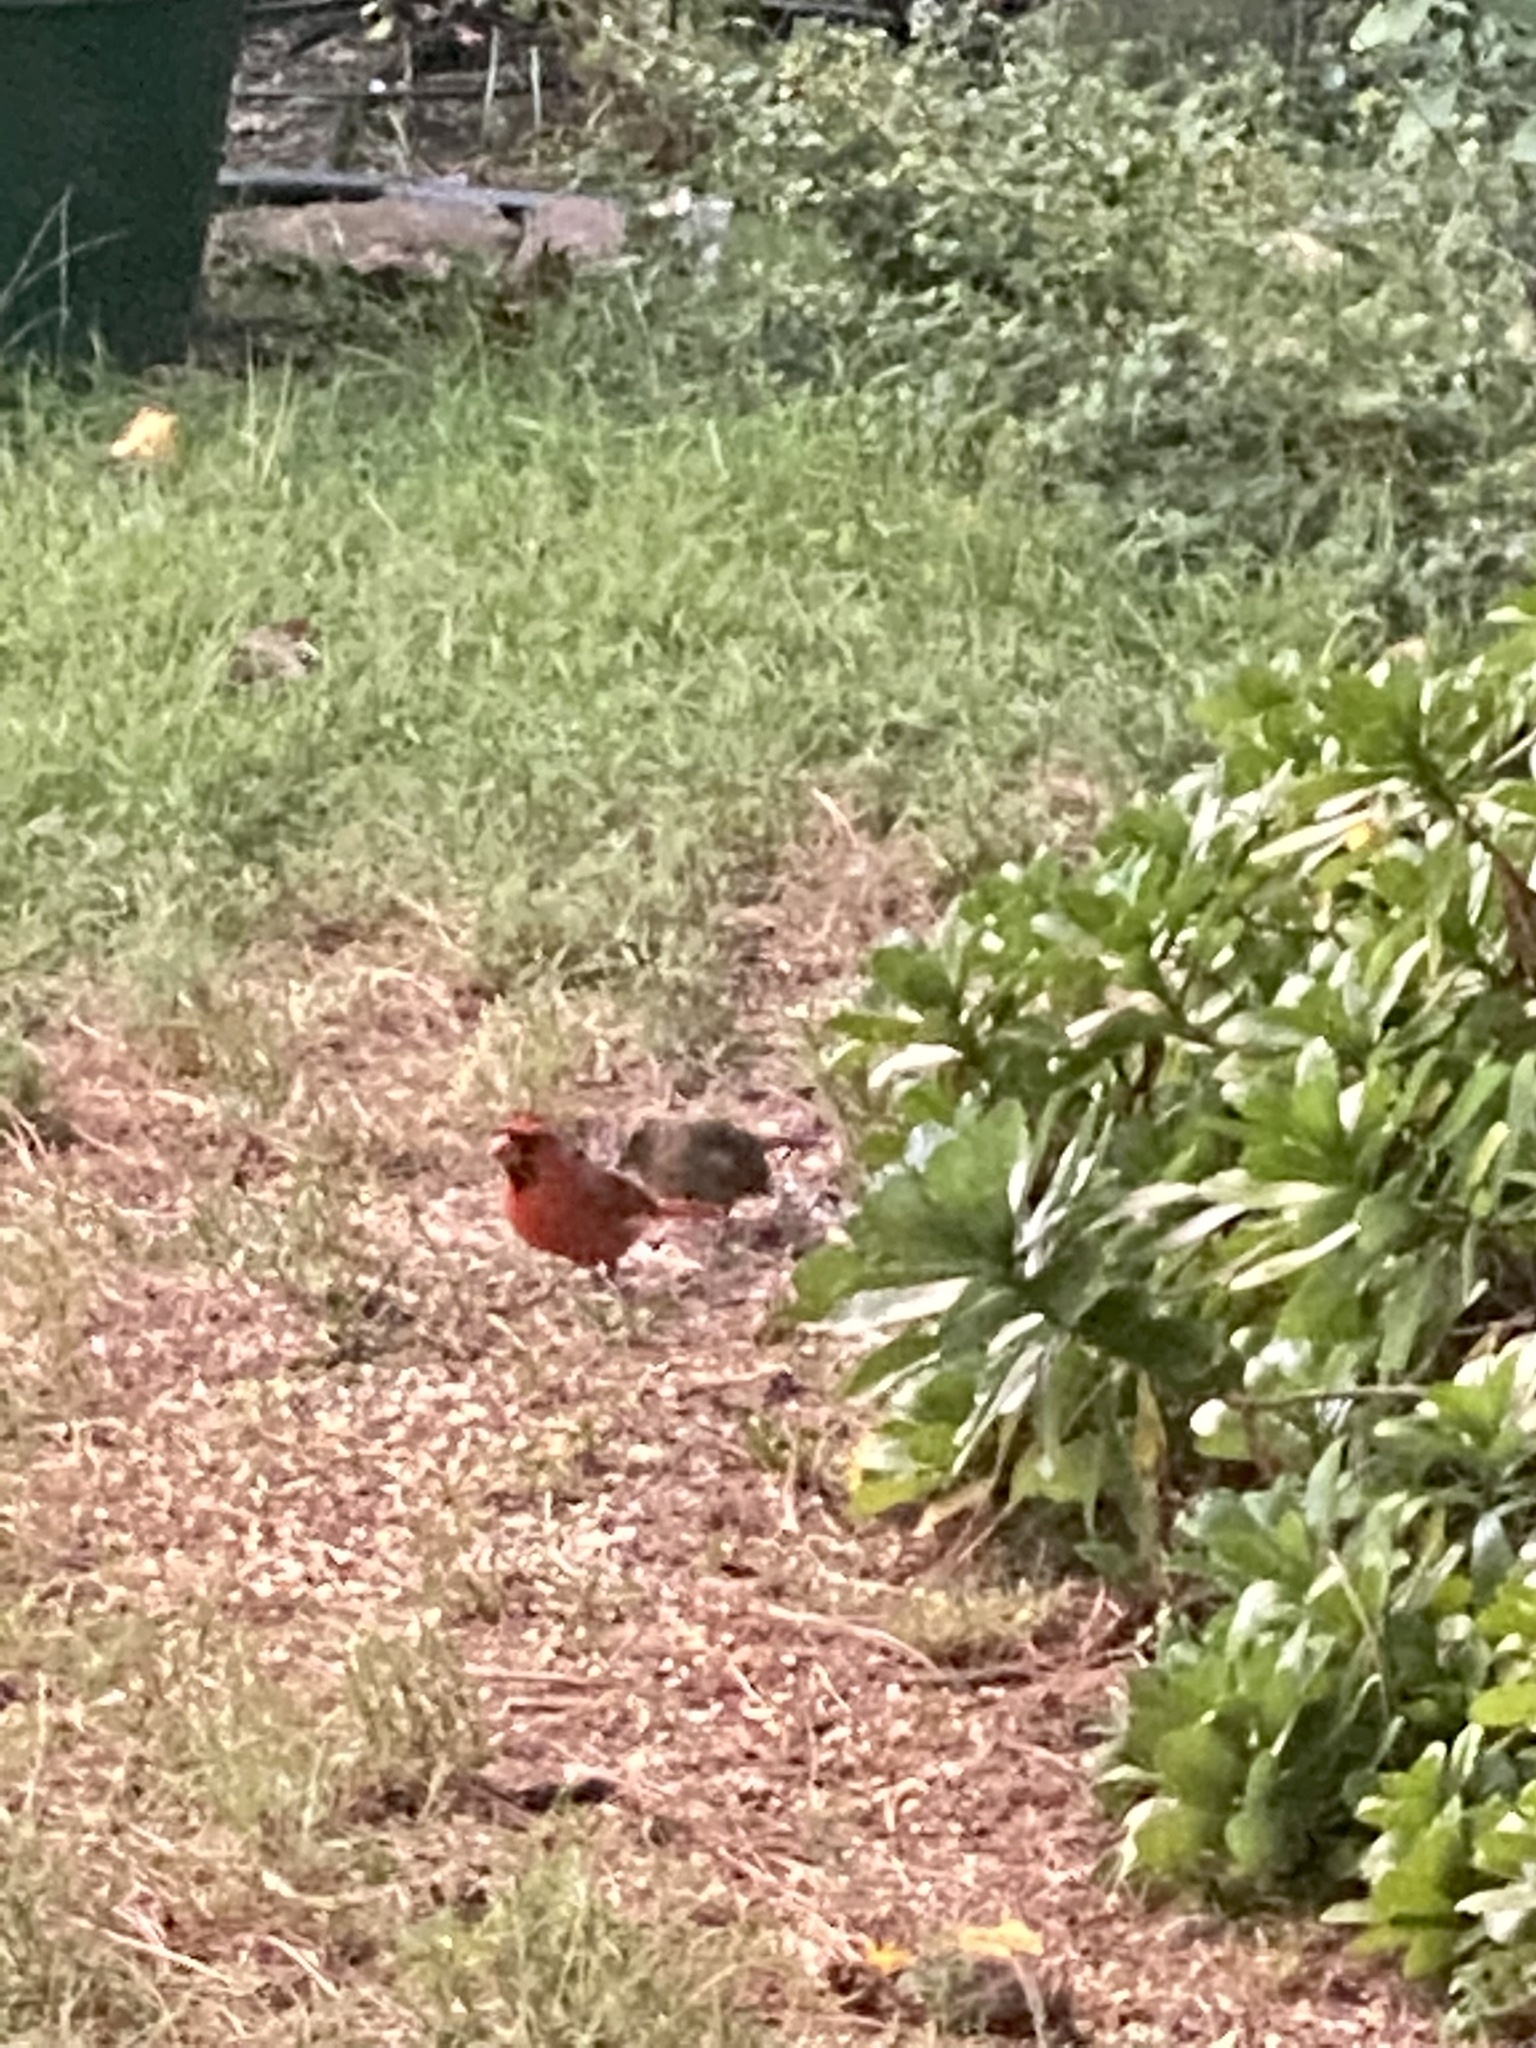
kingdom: Animalia
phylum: Chordata
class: Aves
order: Passeriformes
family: Cardinalidae
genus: Cardinalis
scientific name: Cardinalis cardinalis
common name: Northern cardinal
